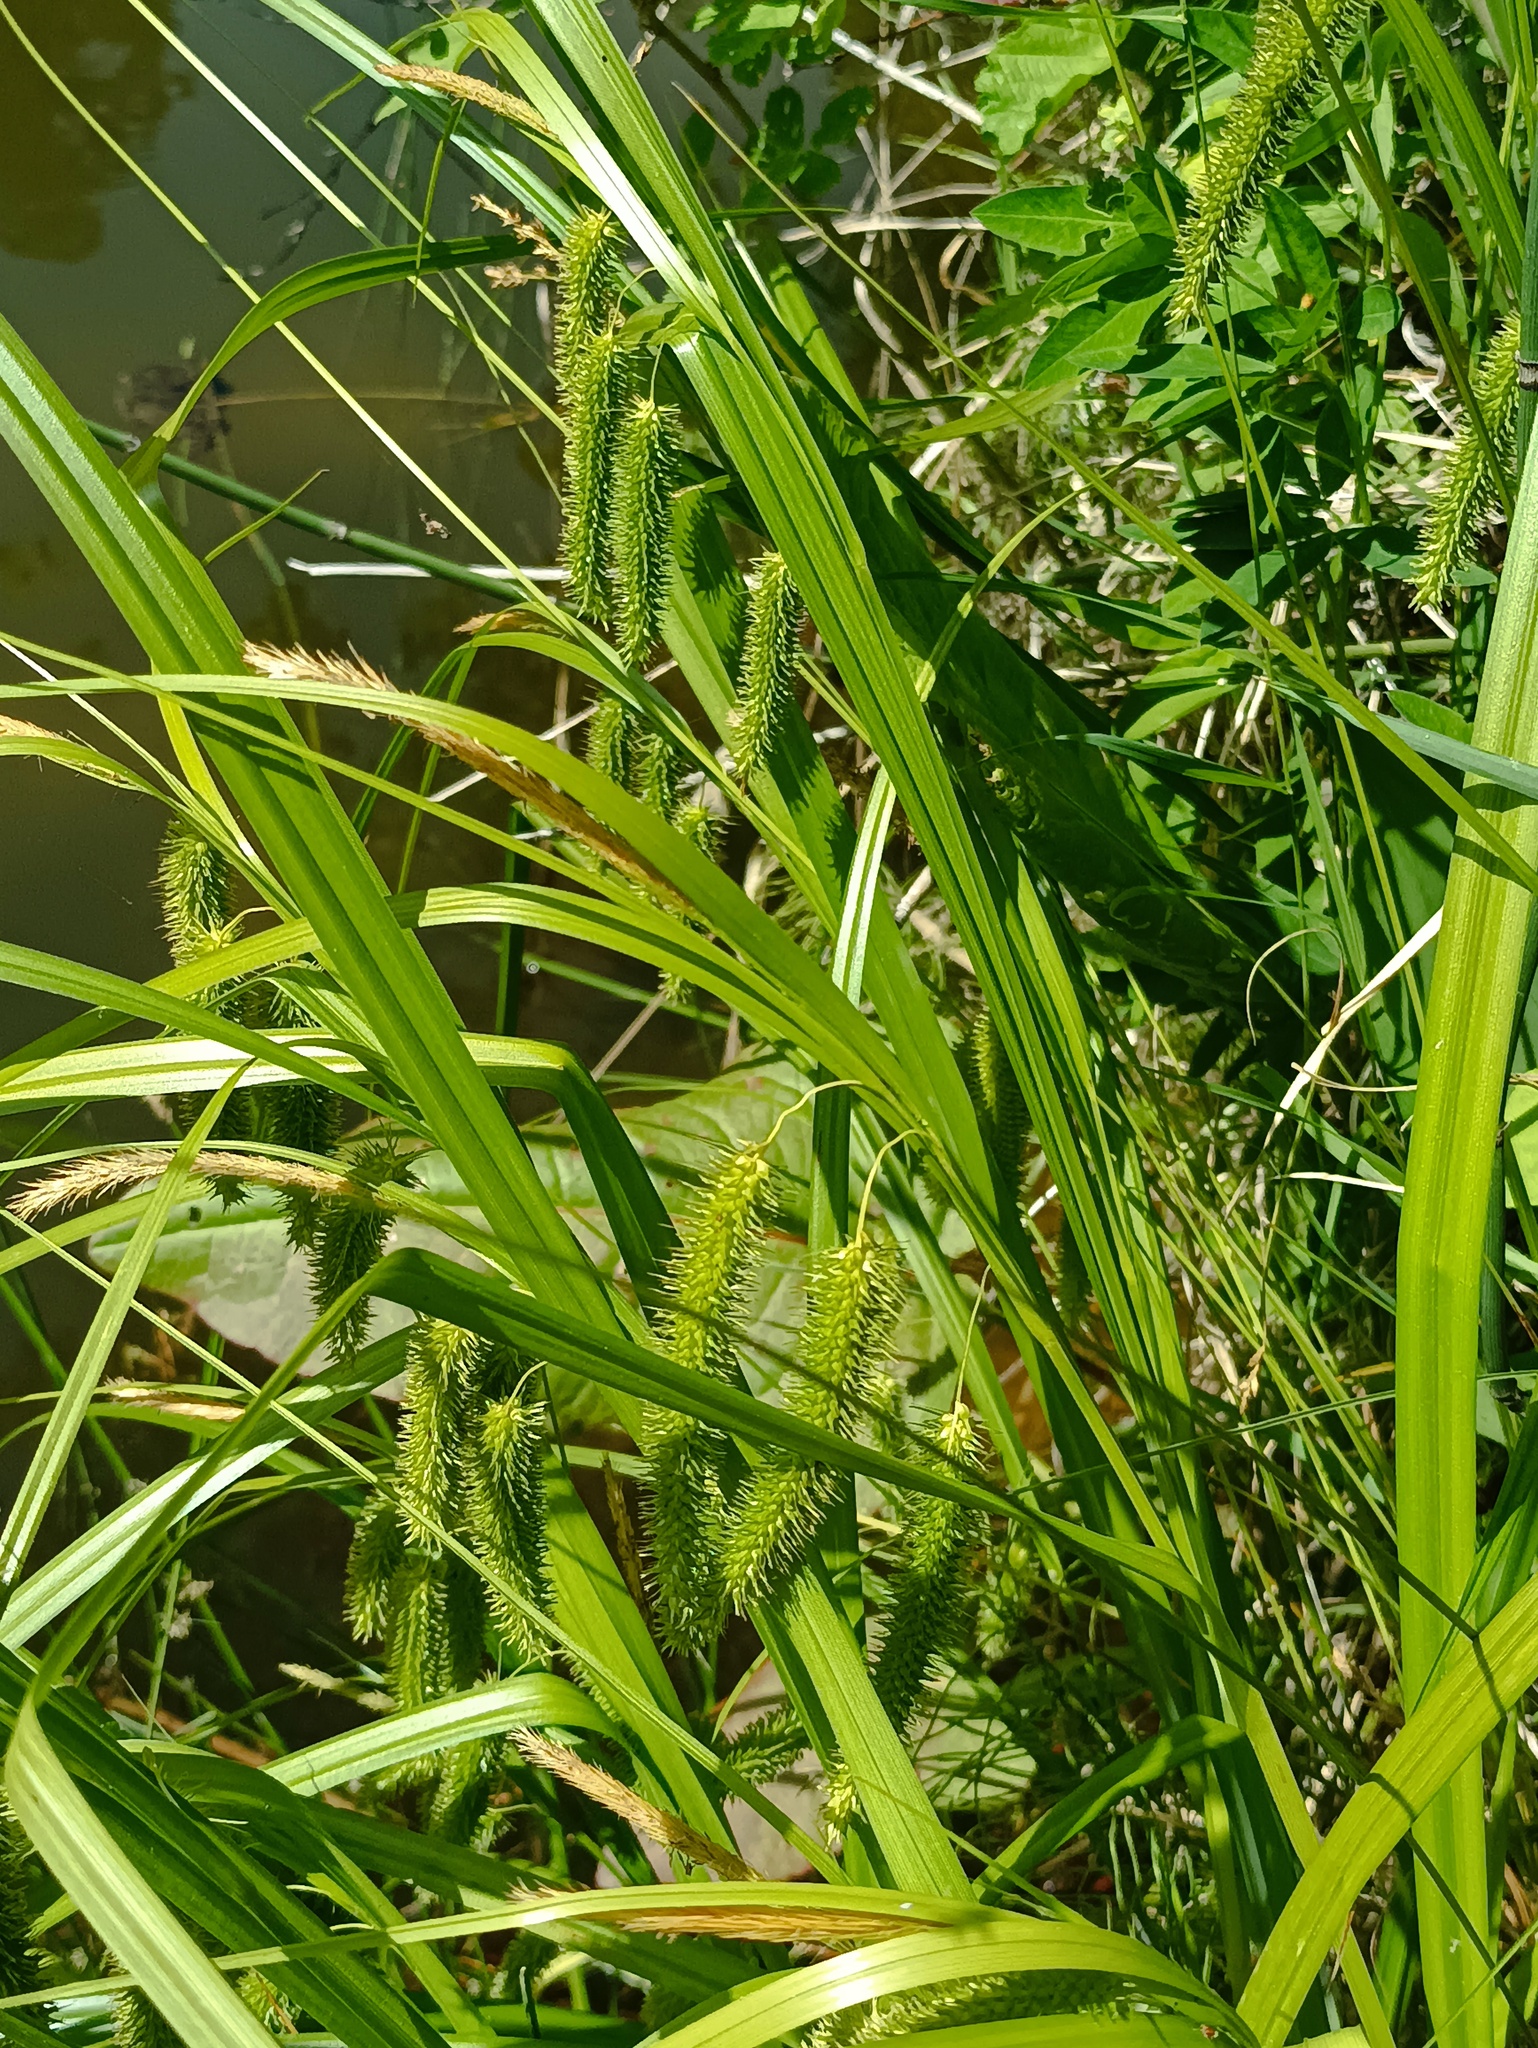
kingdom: Plantae
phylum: Tracheophyta
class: Liliopsida
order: Poales
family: Cyperaceae
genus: Carex
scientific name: Carex pseudocyperus
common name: Cyperus sedge
